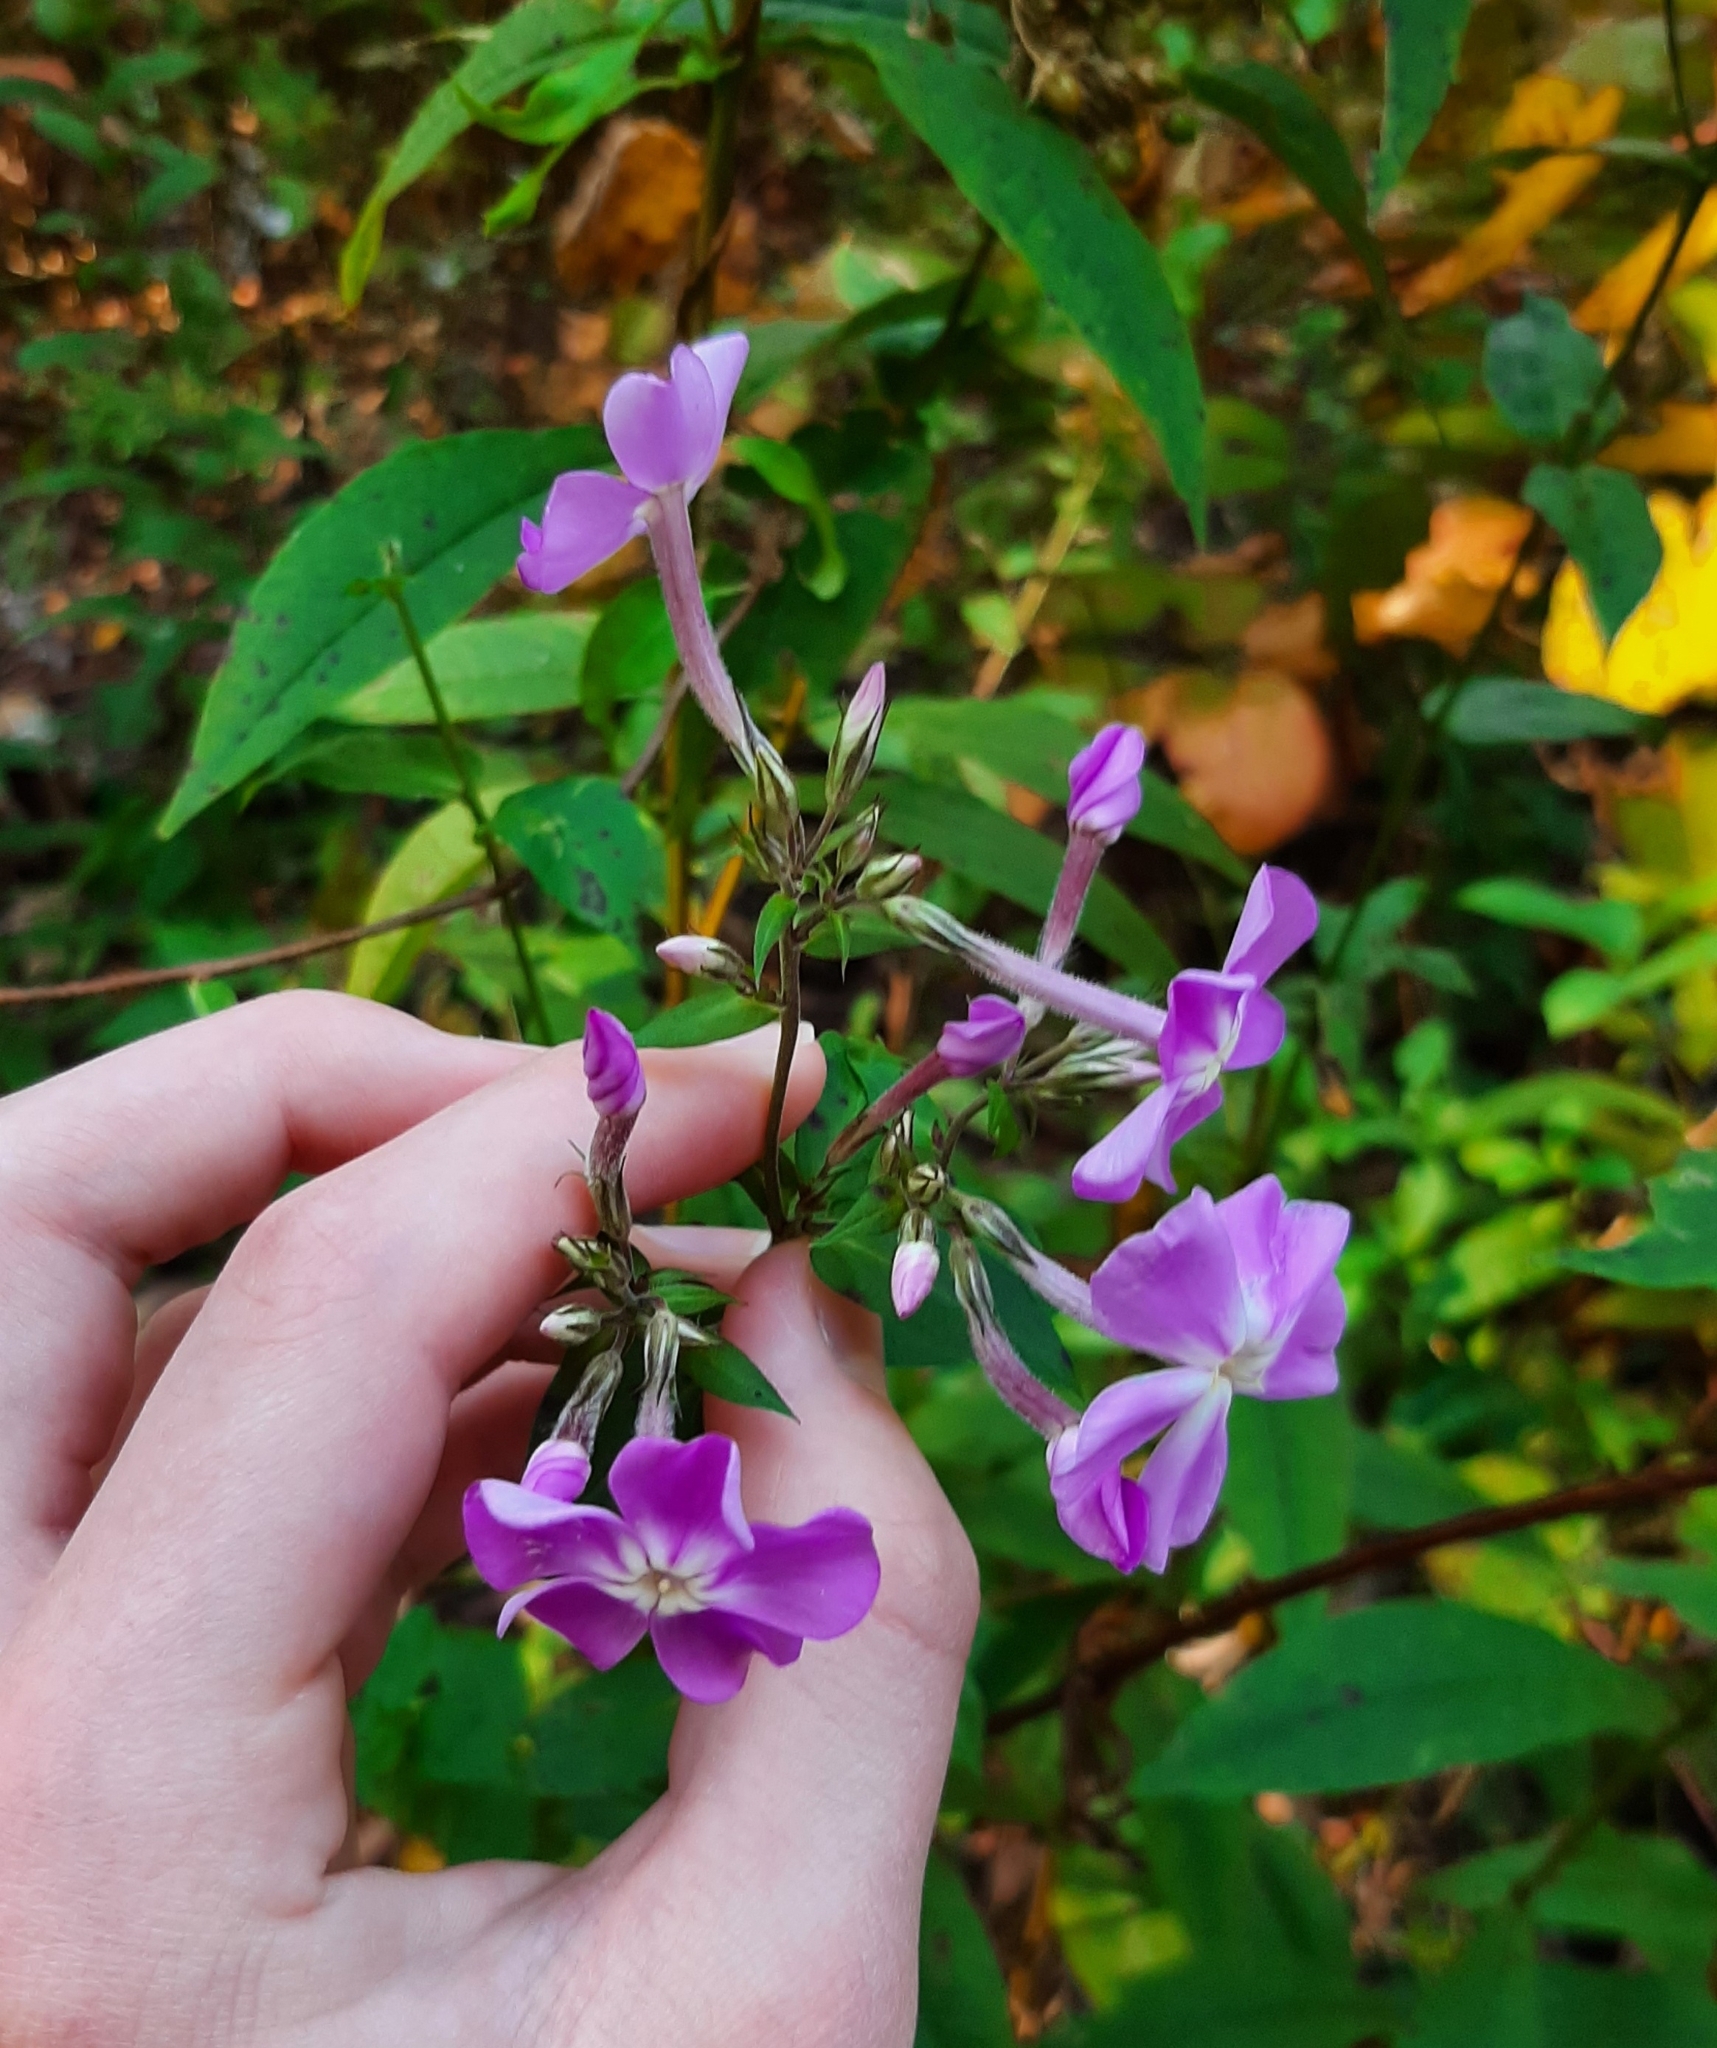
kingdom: Plantae
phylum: Tracheophyta
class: Magnoliopsida
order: Ericales
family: Polemoniaceae
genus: Phlox
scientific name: Phlox paniculata
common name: Fall phlox
